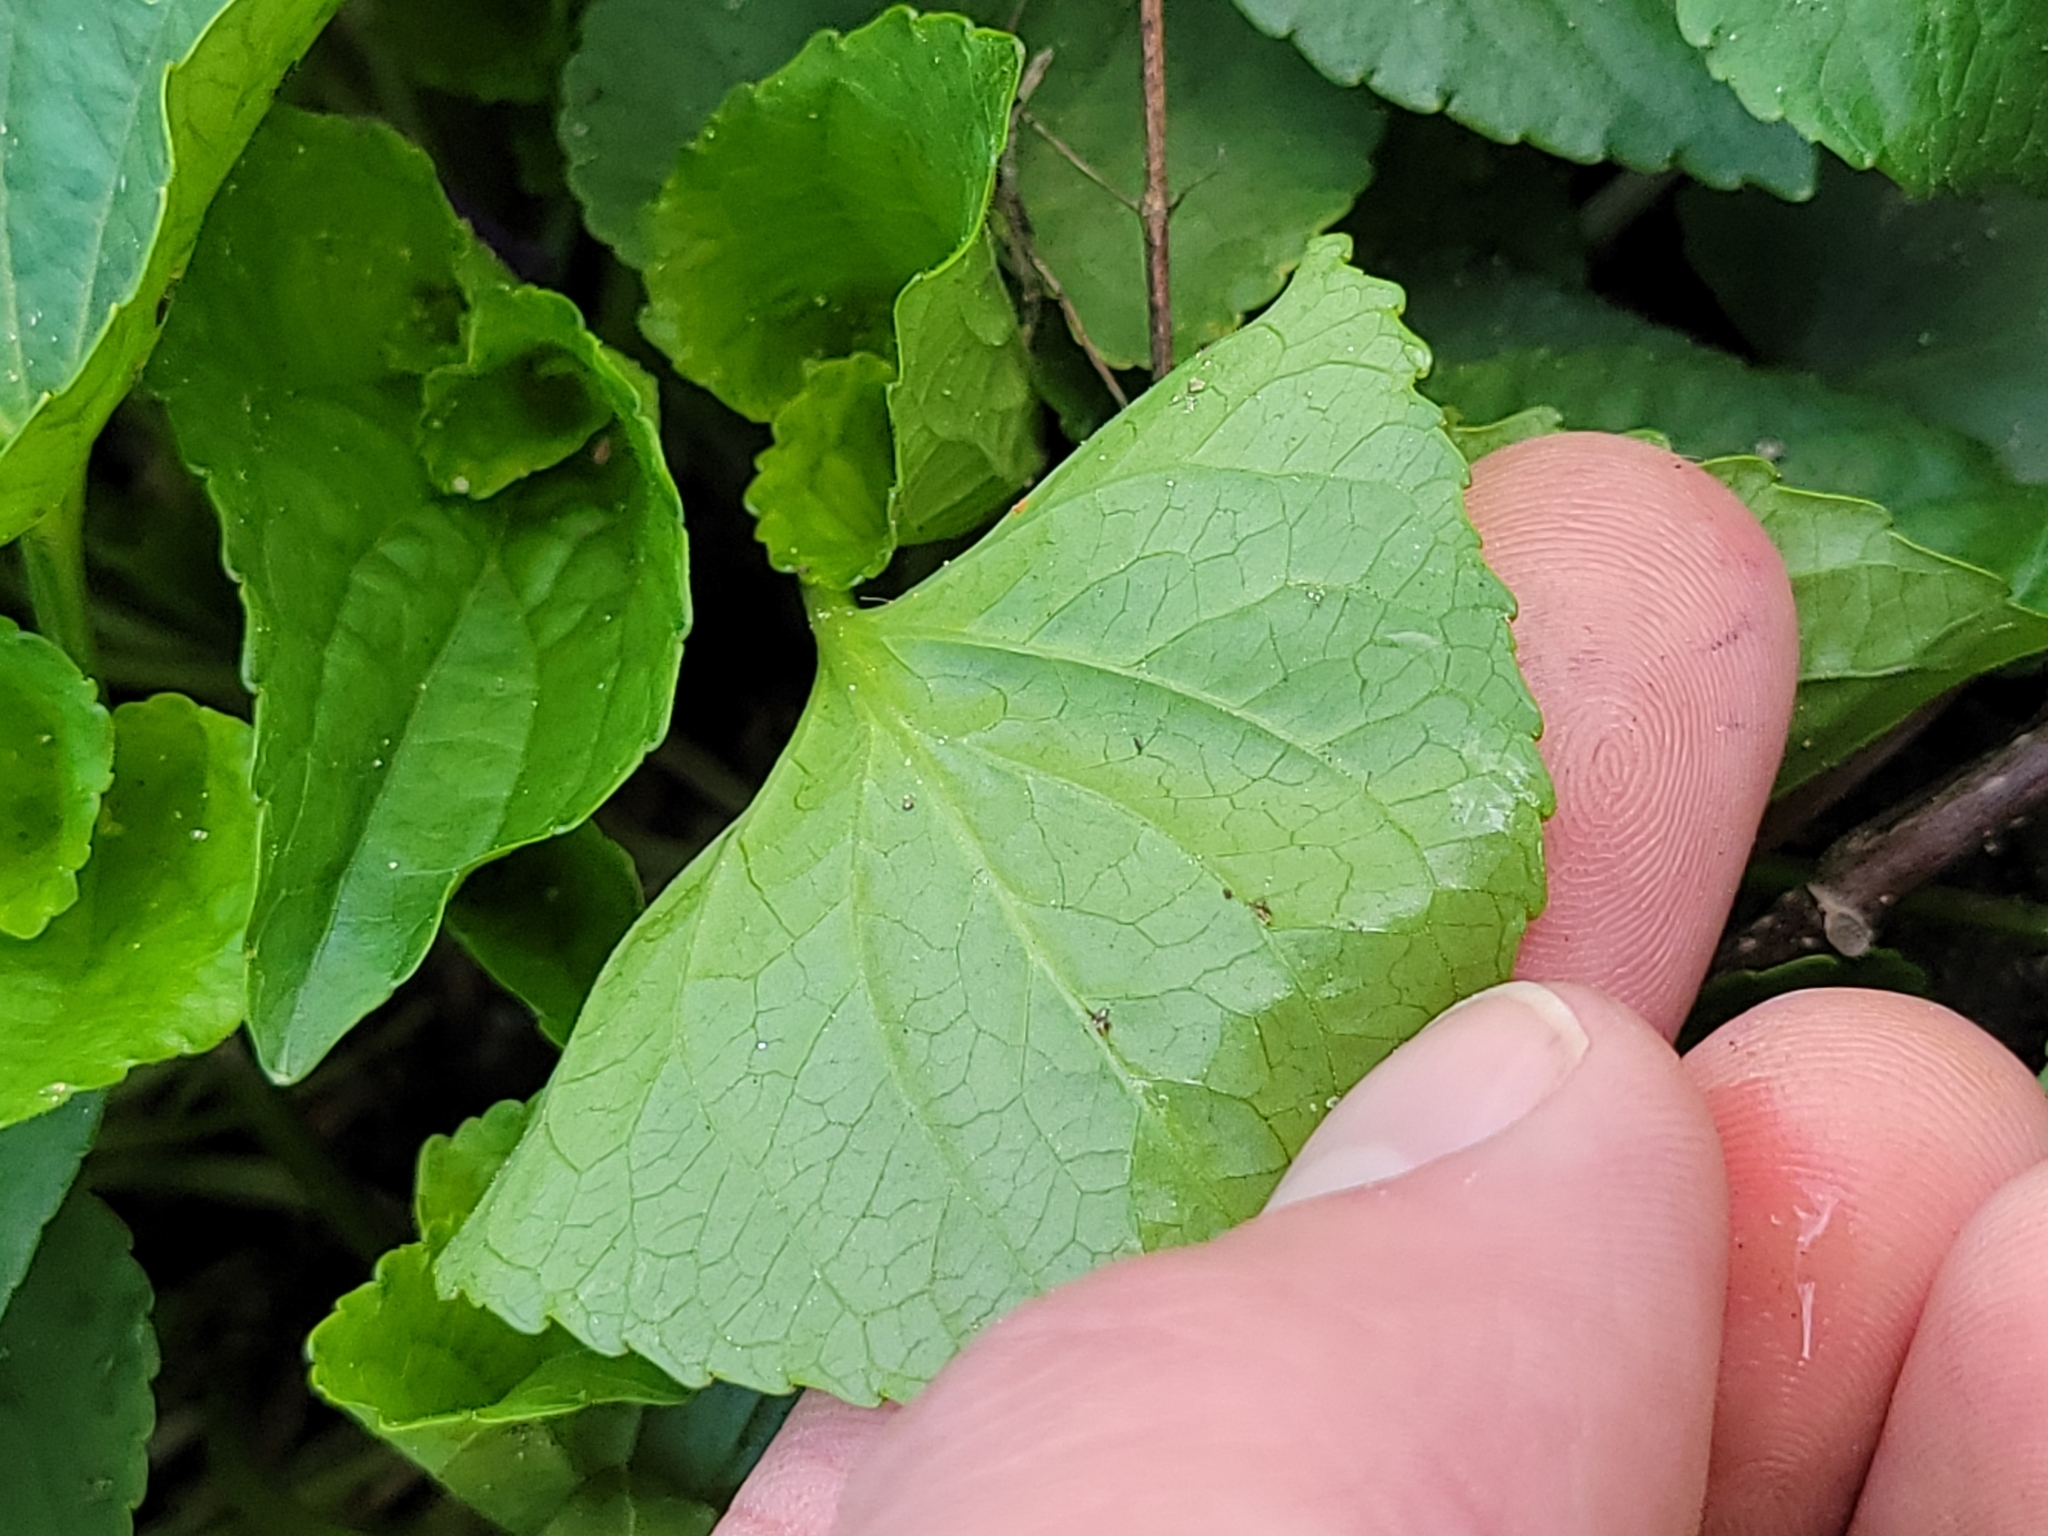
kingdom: Plantae
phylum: Tracheophyta
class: Magnoliopsida
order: Malpighiales
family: Violaceae
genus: Viola
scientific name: Viola sororia
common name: Dooryard violet
